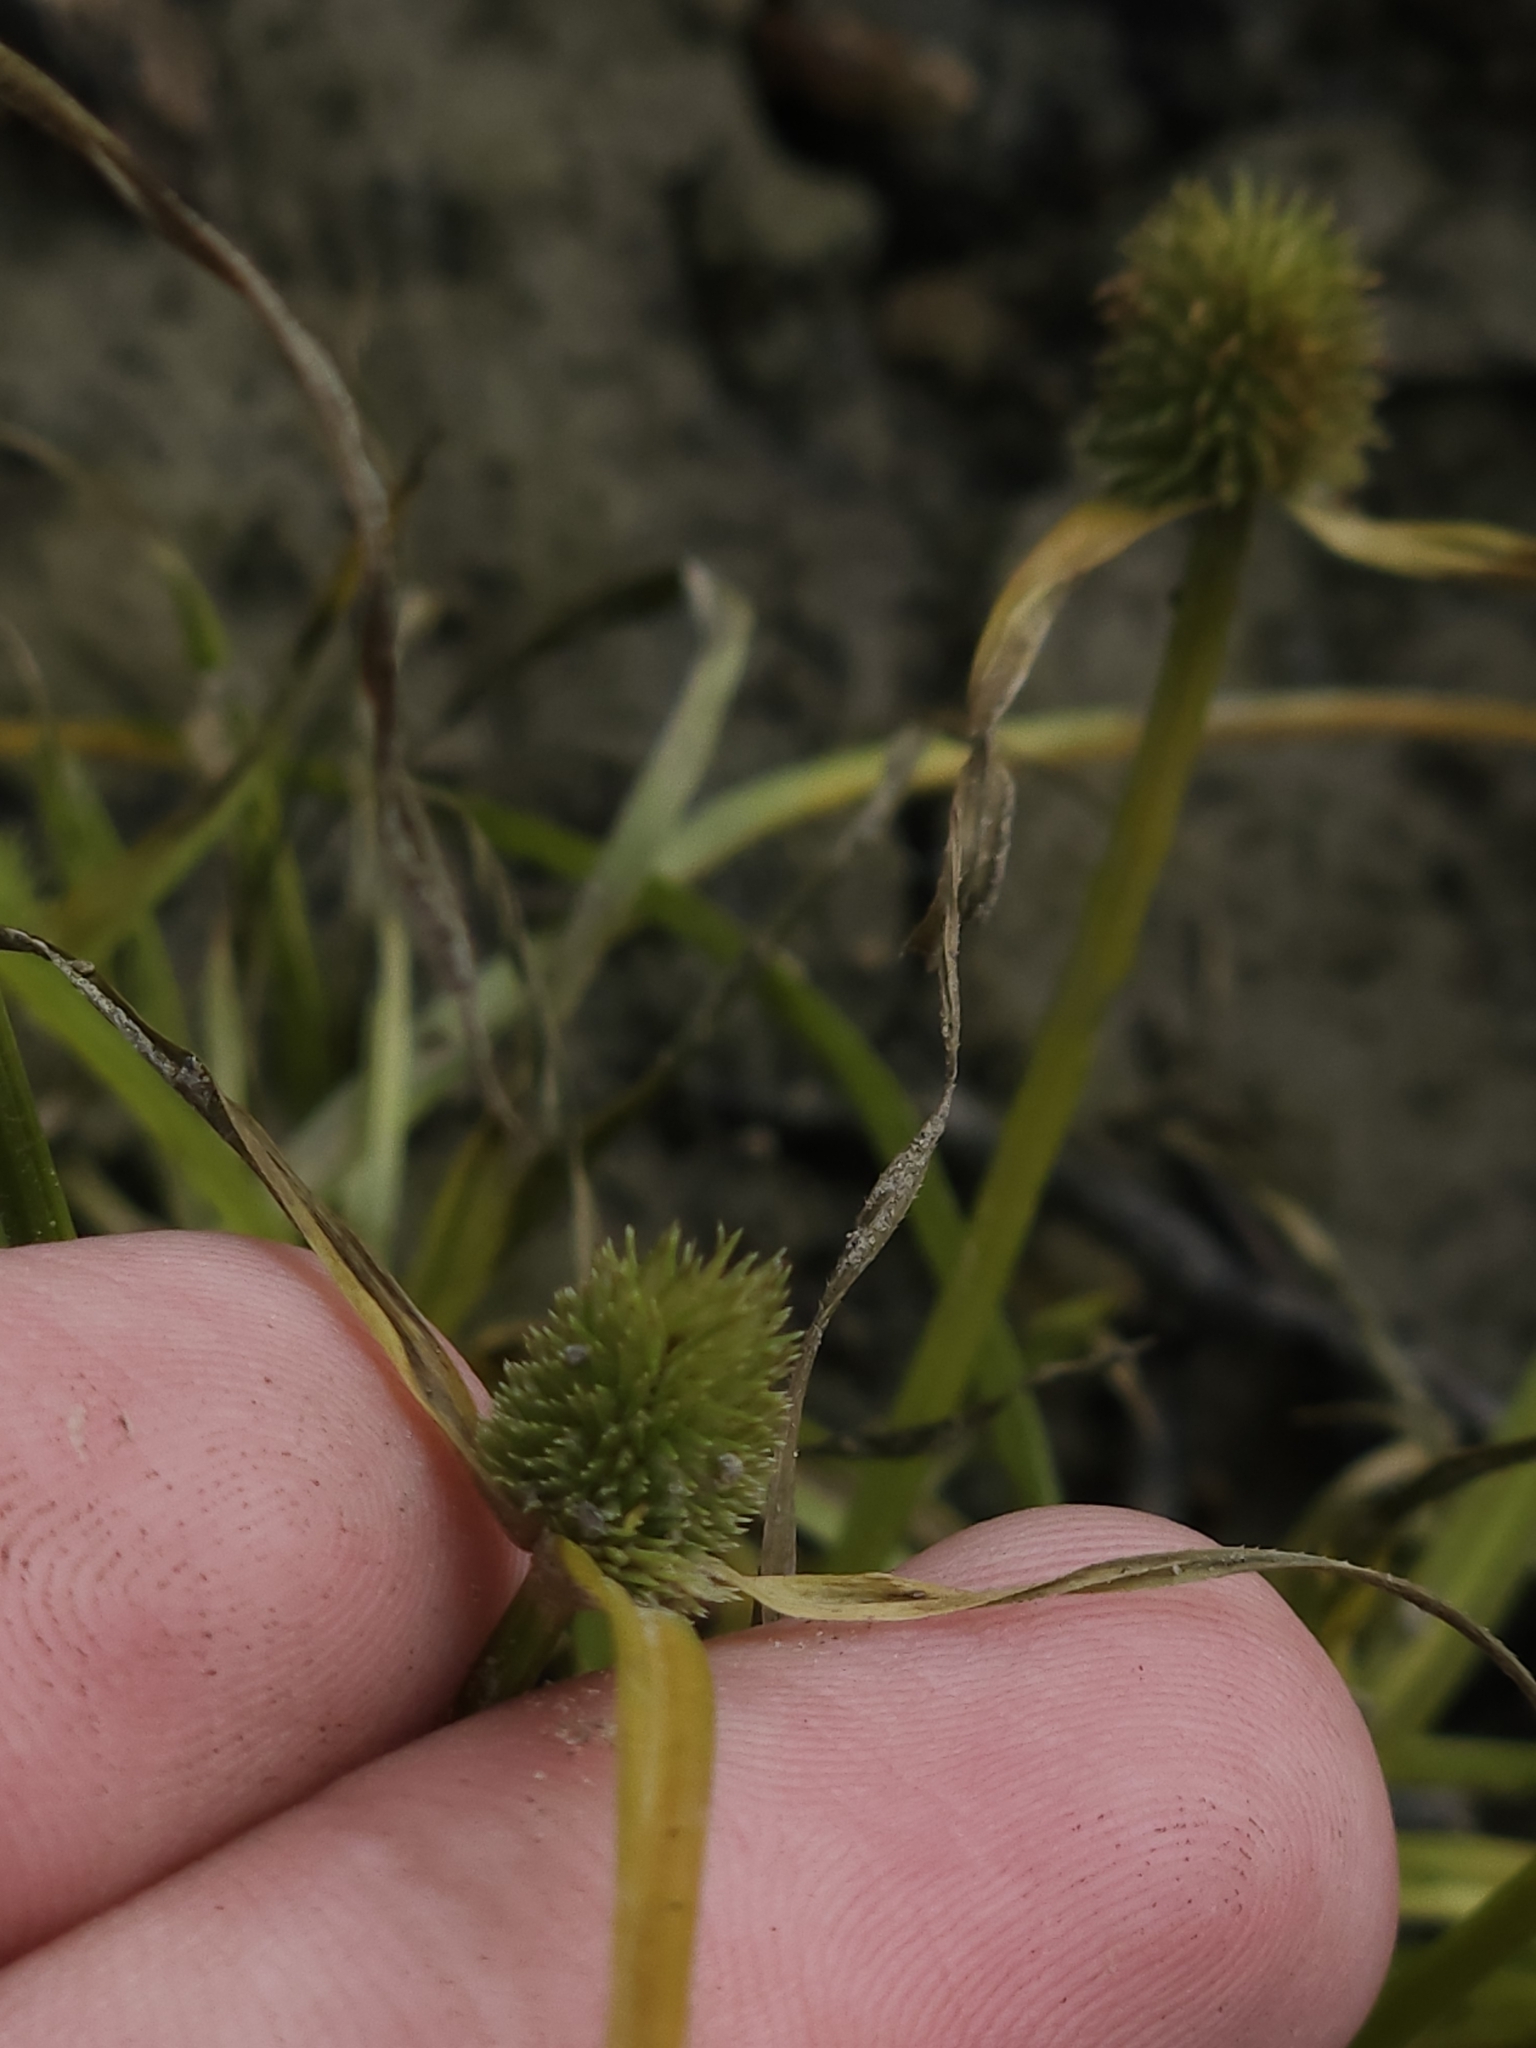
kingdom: Plantae
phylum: Tracheophyta
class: Liliopsida
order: Poales
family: Cyperaceae
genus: Cyperus
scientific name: Cyperus brevifolius
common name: Globe kyllinga
